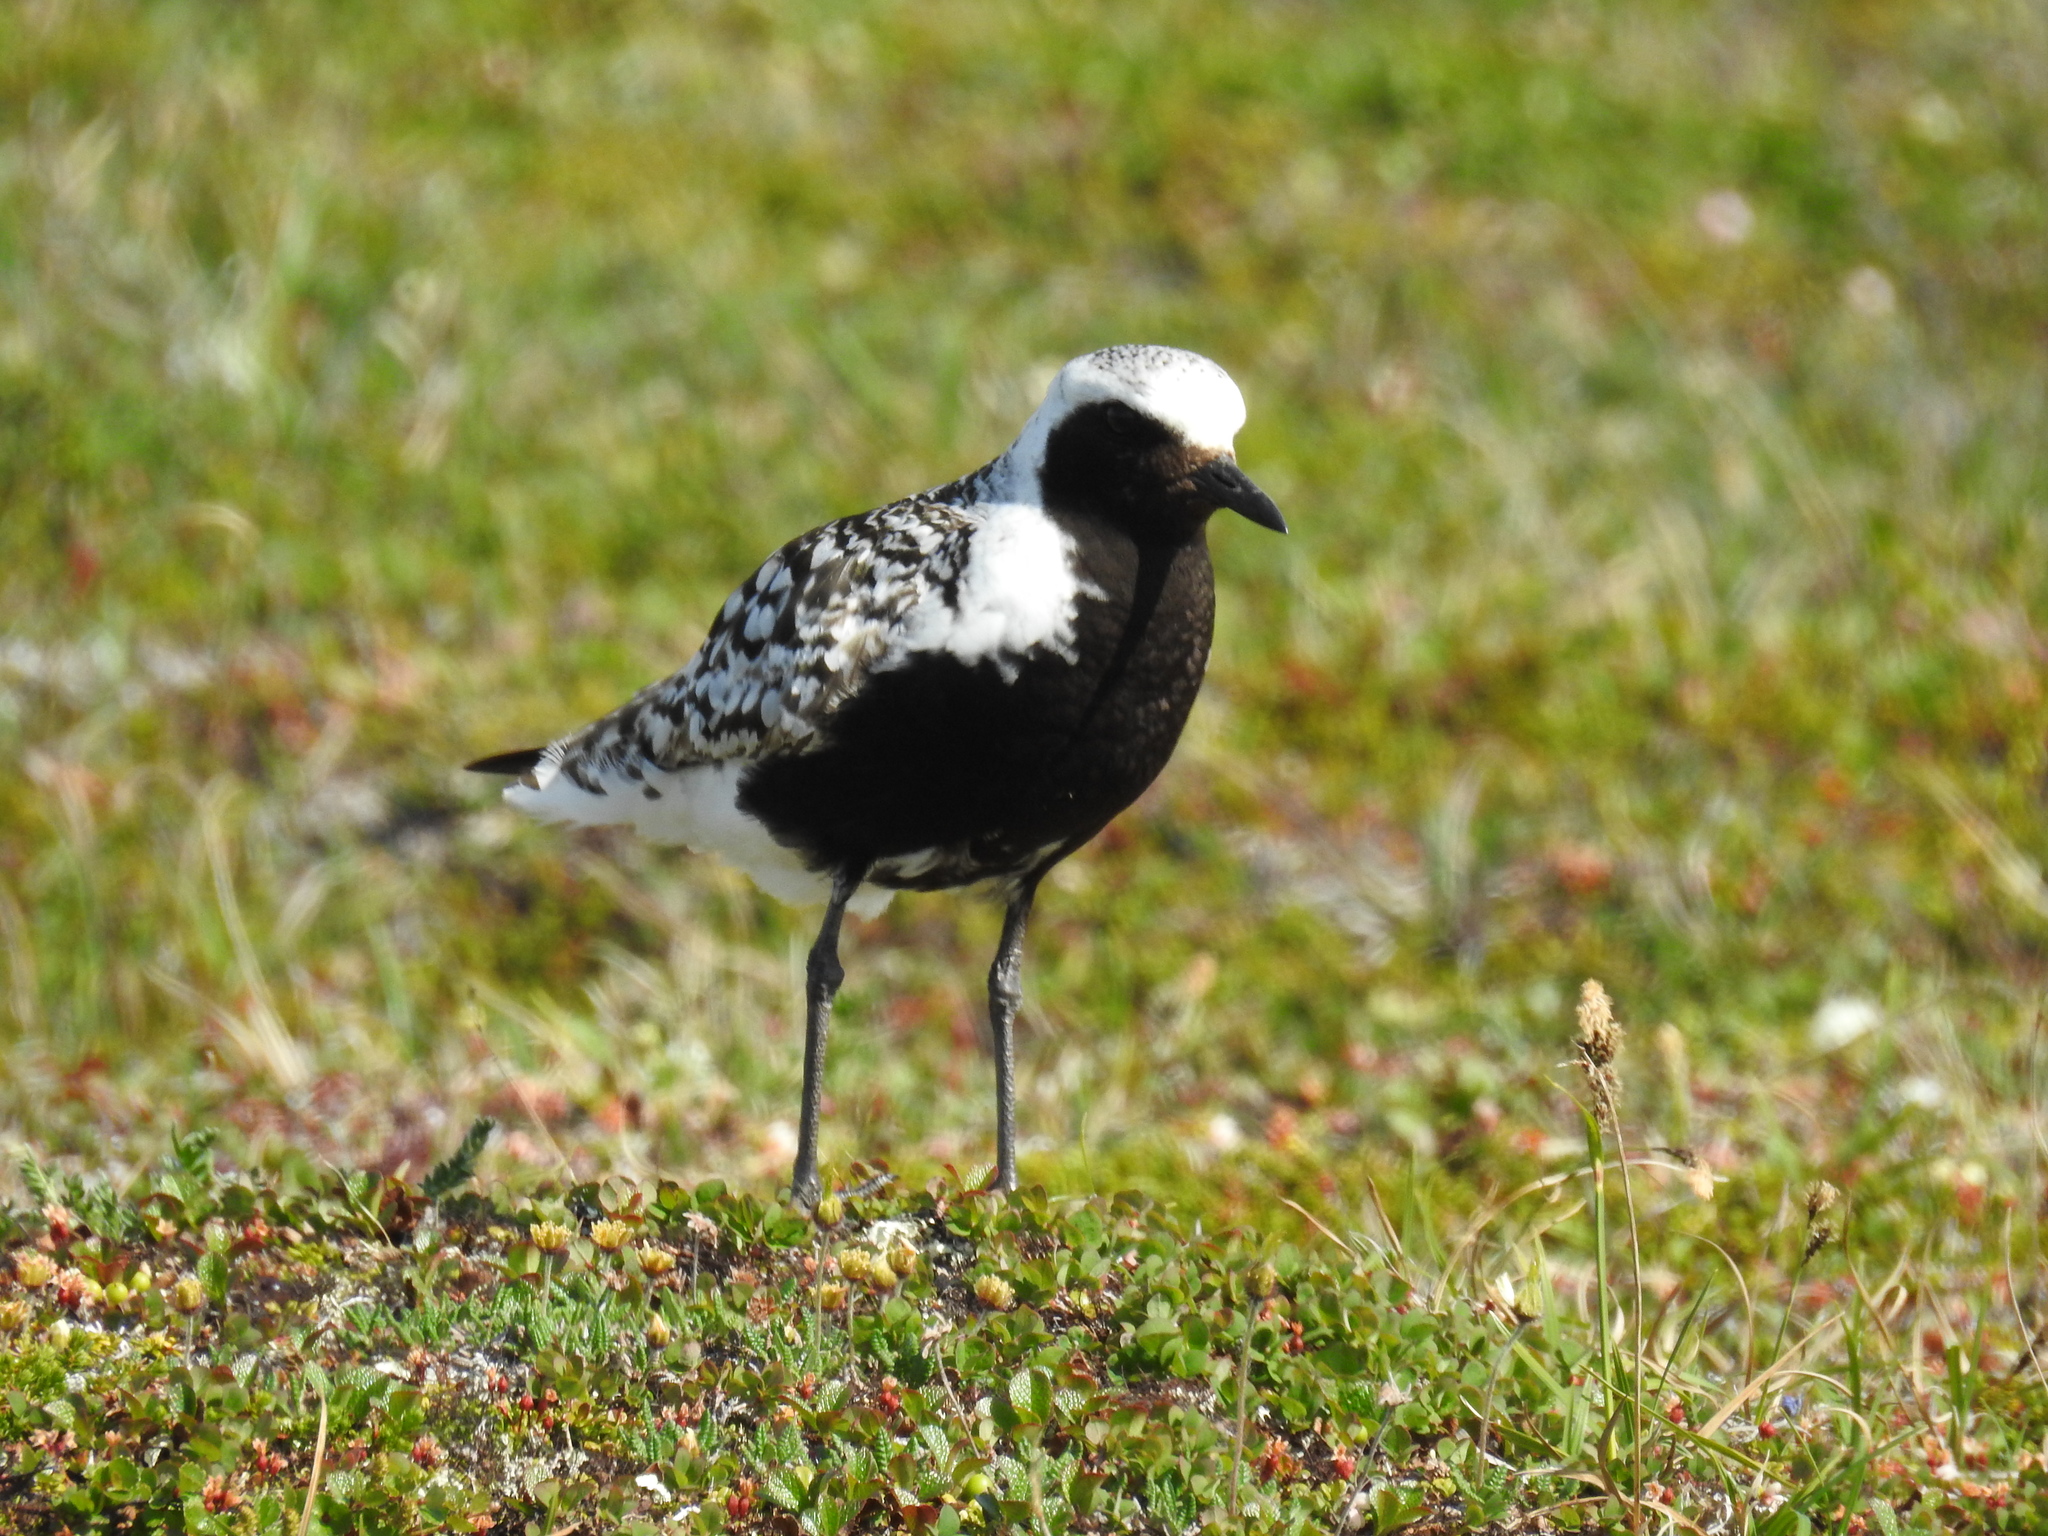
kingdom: Animalia
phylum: Chordata
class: Aves
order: Charadriiformes
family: Charadriidae
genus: Pluvialis
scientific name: Pluvialis squatarola
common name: Grey plover
